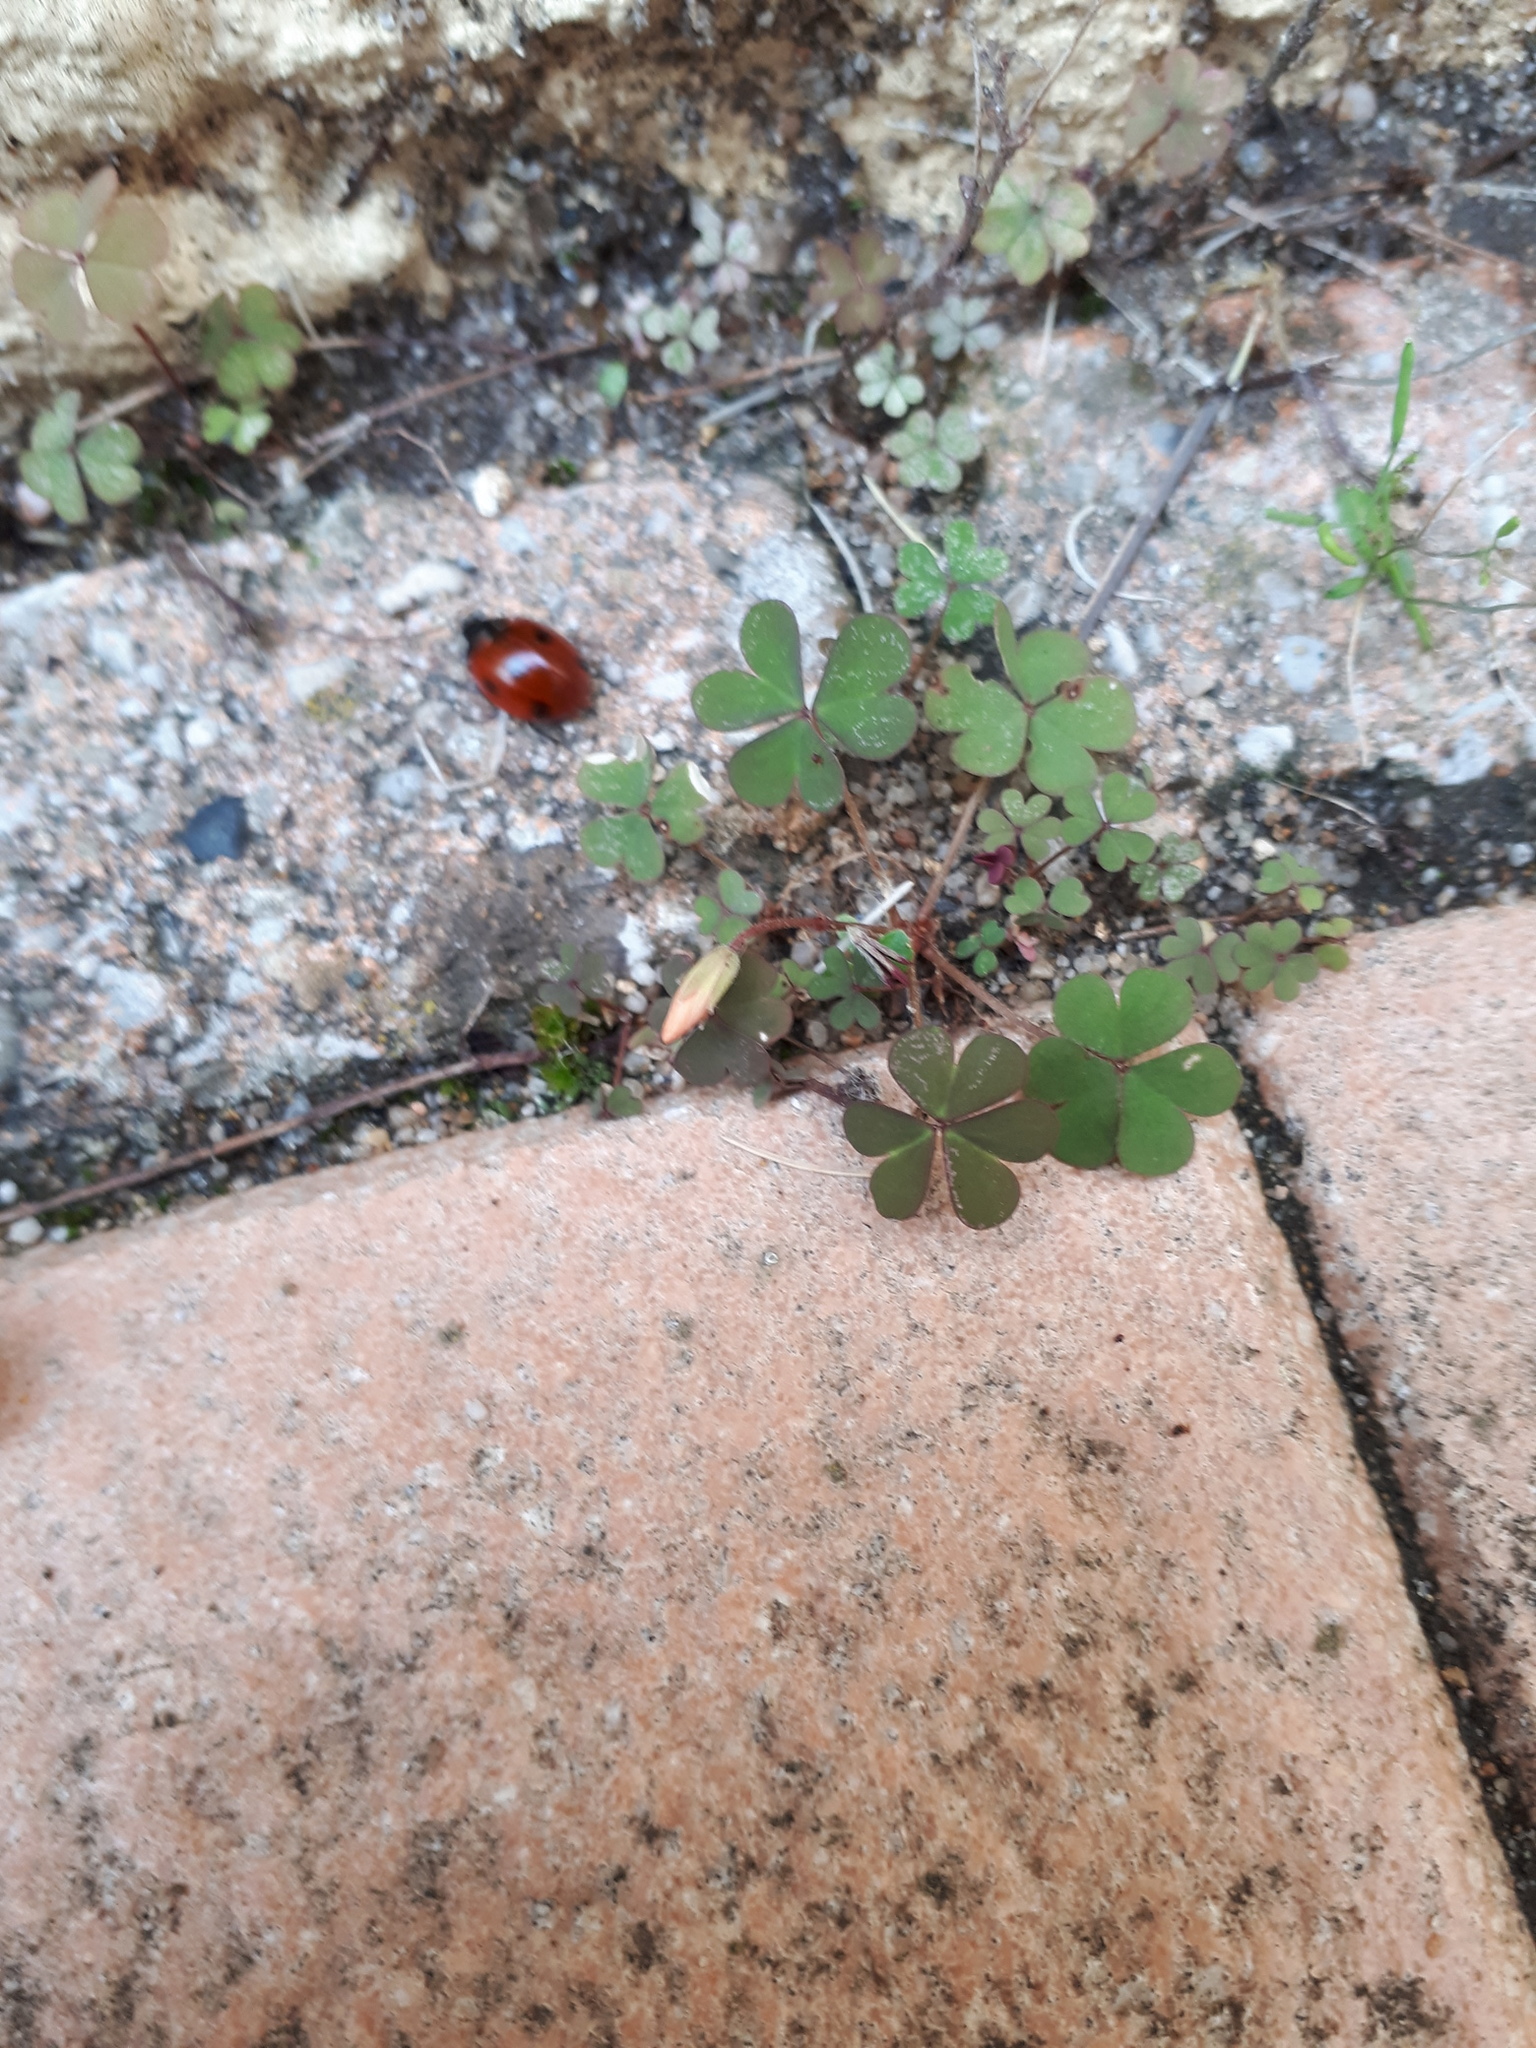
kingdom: Animalia
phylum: Arthropoda
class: Insecta
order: Coleoptera
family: Coccinellidae
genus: Coccinella
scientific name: Coccinella septempunctata
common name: Sevenspotted lady beetle
